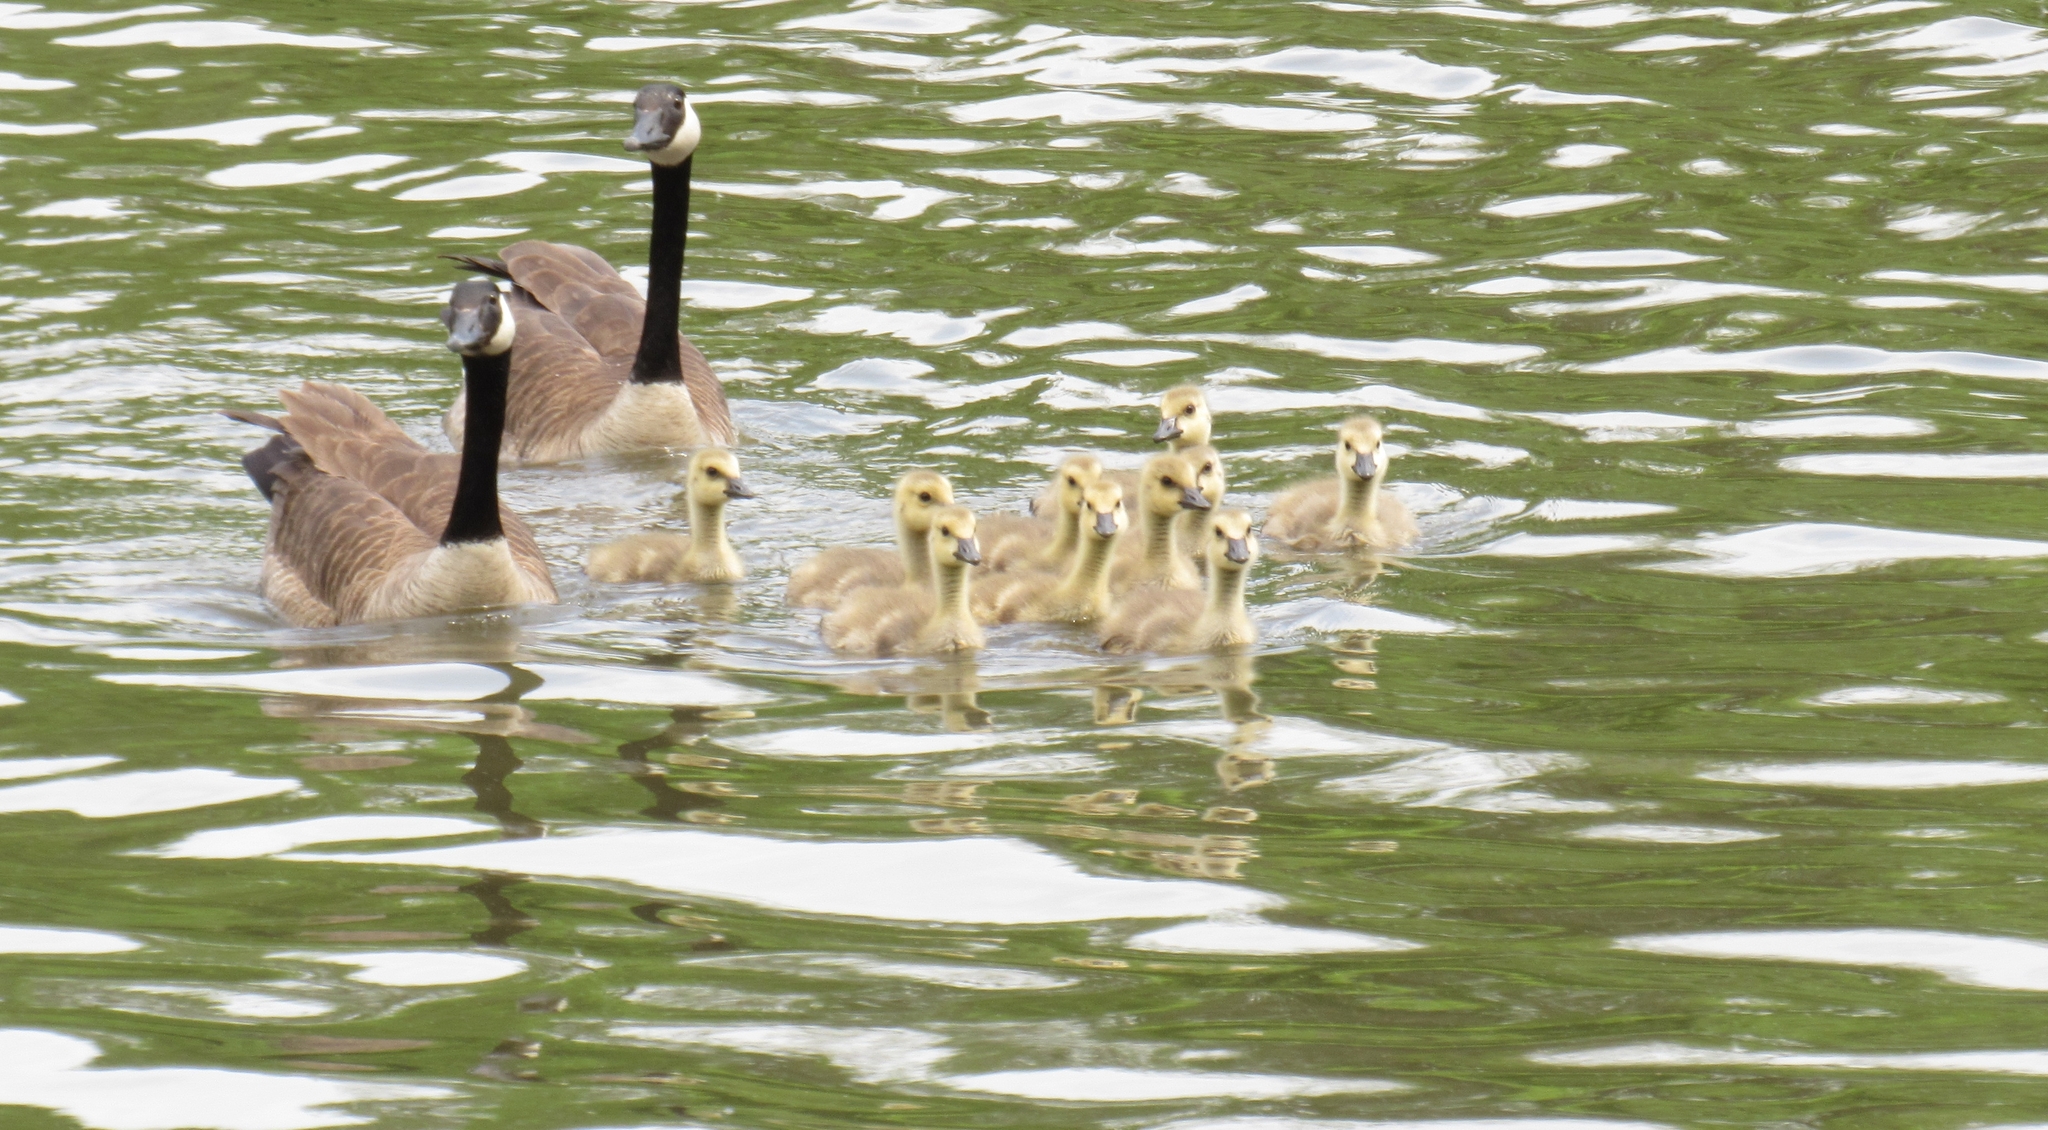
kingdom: Animalia
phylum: Chordata
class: Aves
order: Anseriformes
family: Anatidae
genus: Branta
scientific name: Branta canadensis
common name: Canada goose
